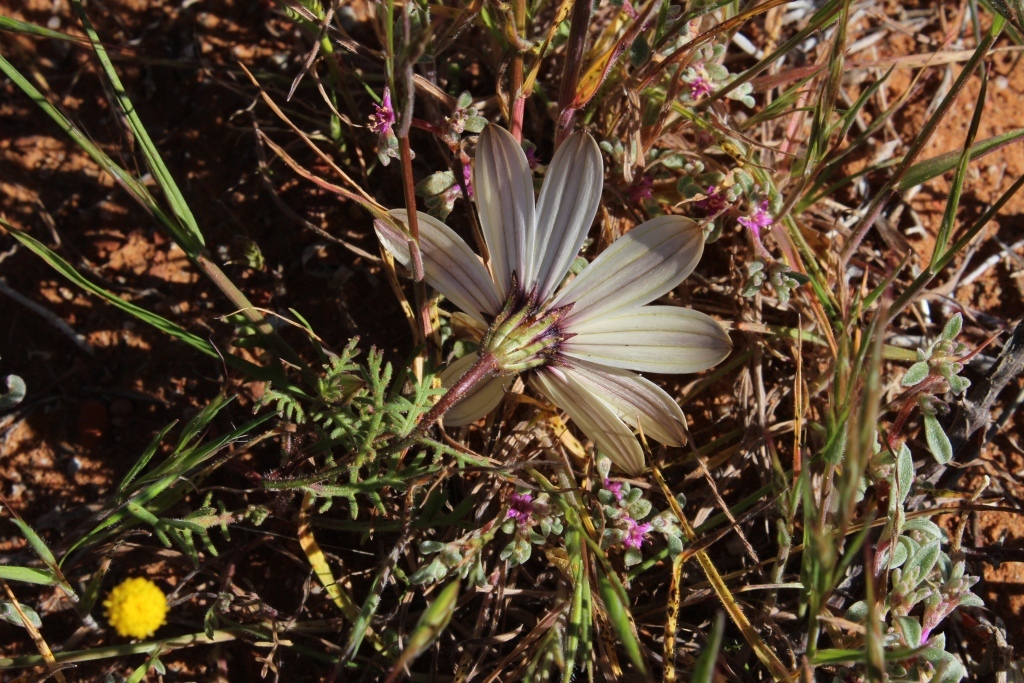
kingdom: Plantae
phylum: Tracheophyta
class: Magnoliopsida
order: Asterales
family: Asteraceae
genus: Dimorphotheca
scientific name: Dimorphotheca pinnata
